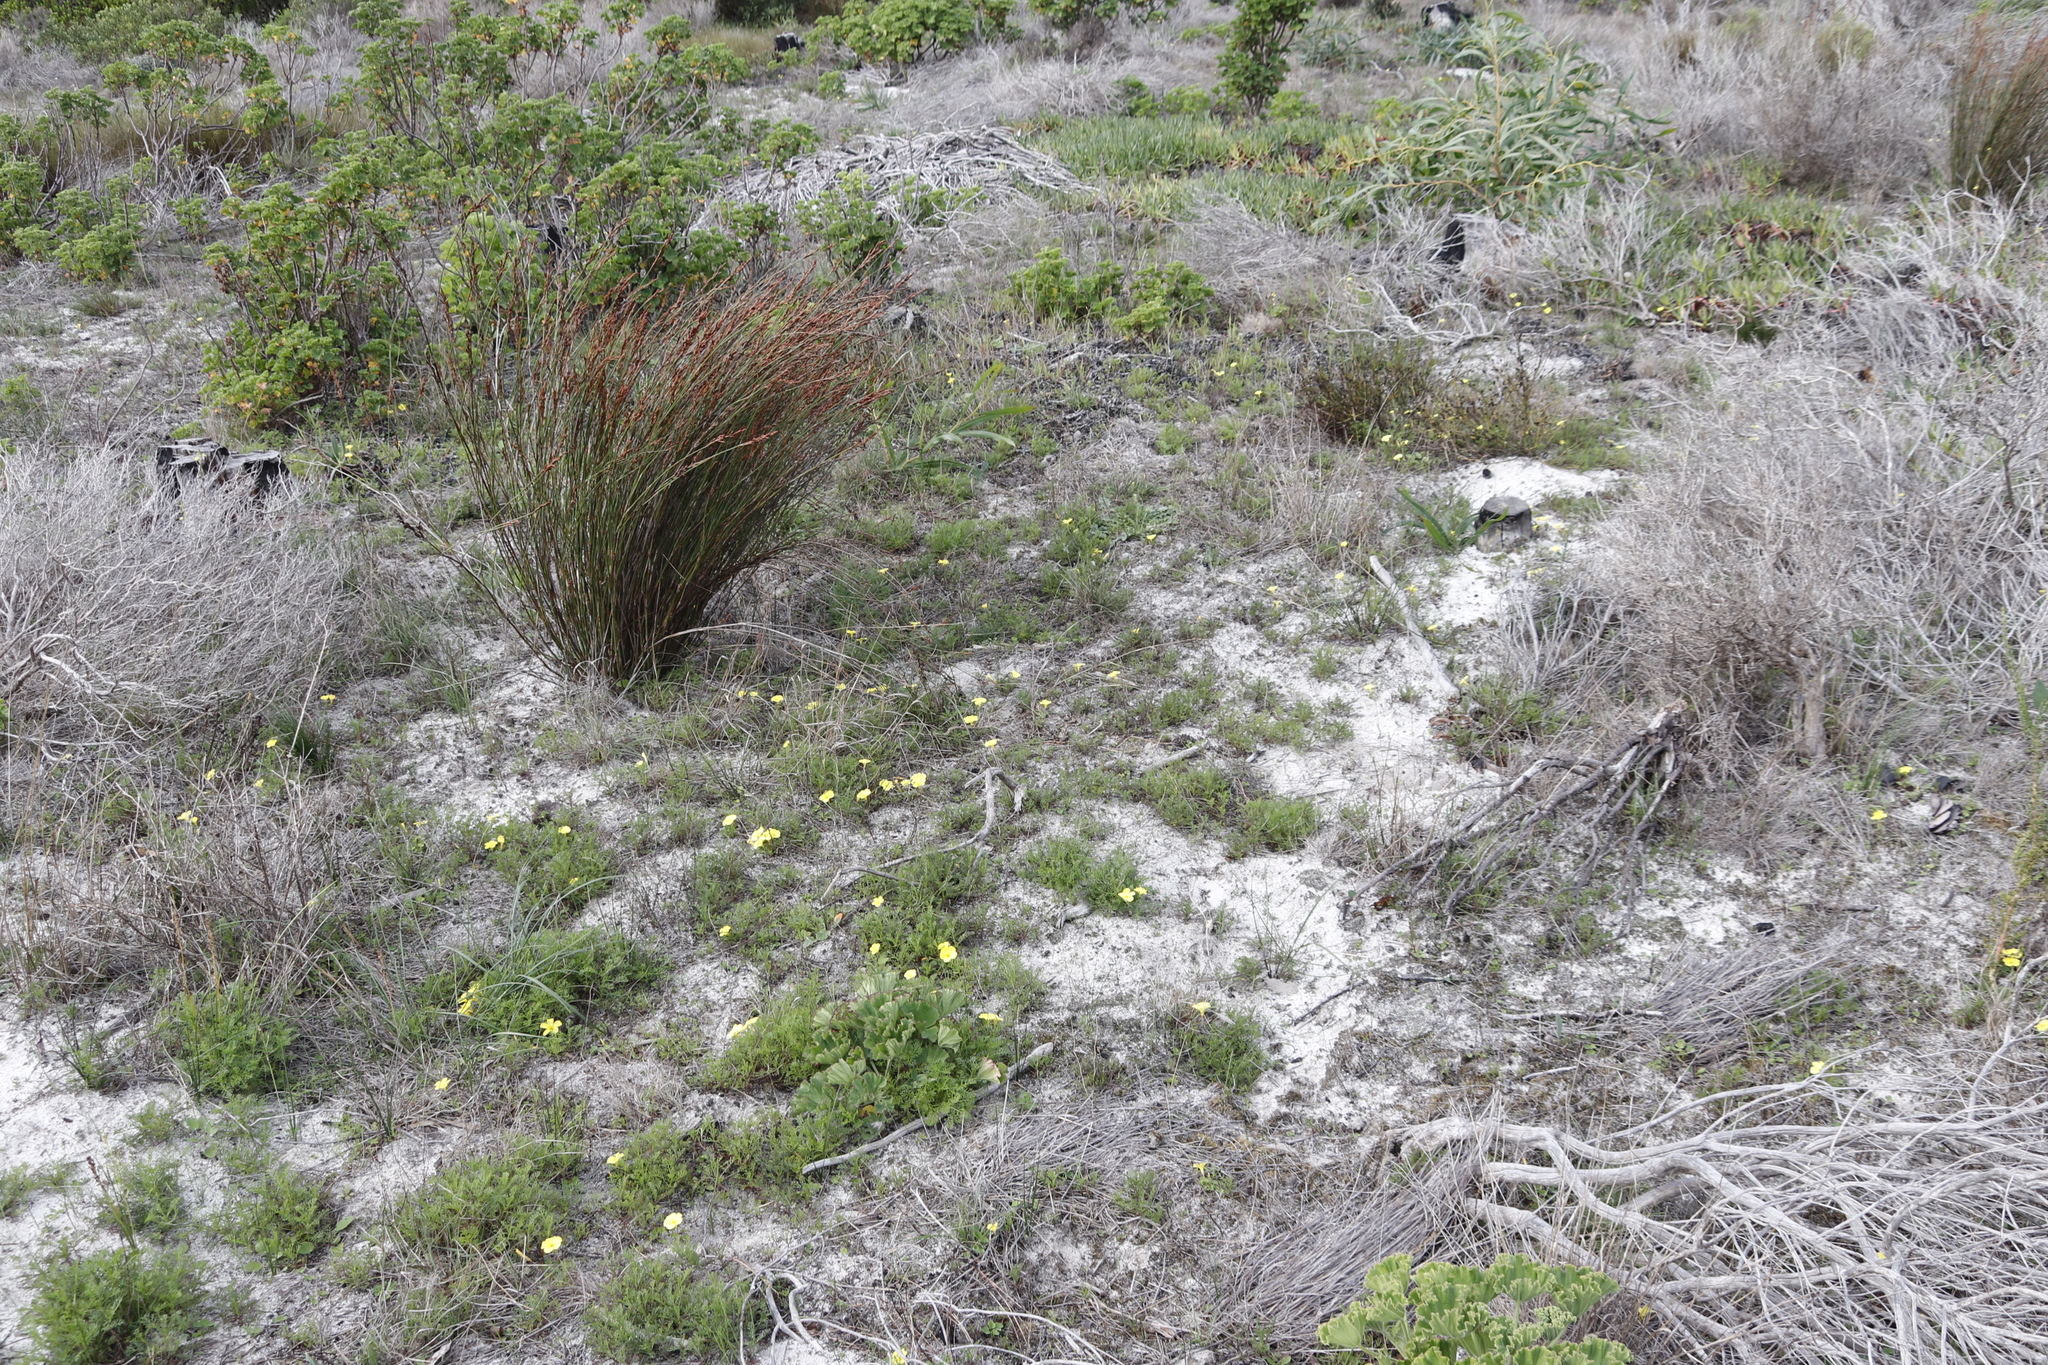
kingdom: Plantae
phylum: Tracheophyta
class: Magnoliopsida
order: Oxalidales
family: Oxalidaceae
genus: Oxalis
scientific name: Oxalis luteola
